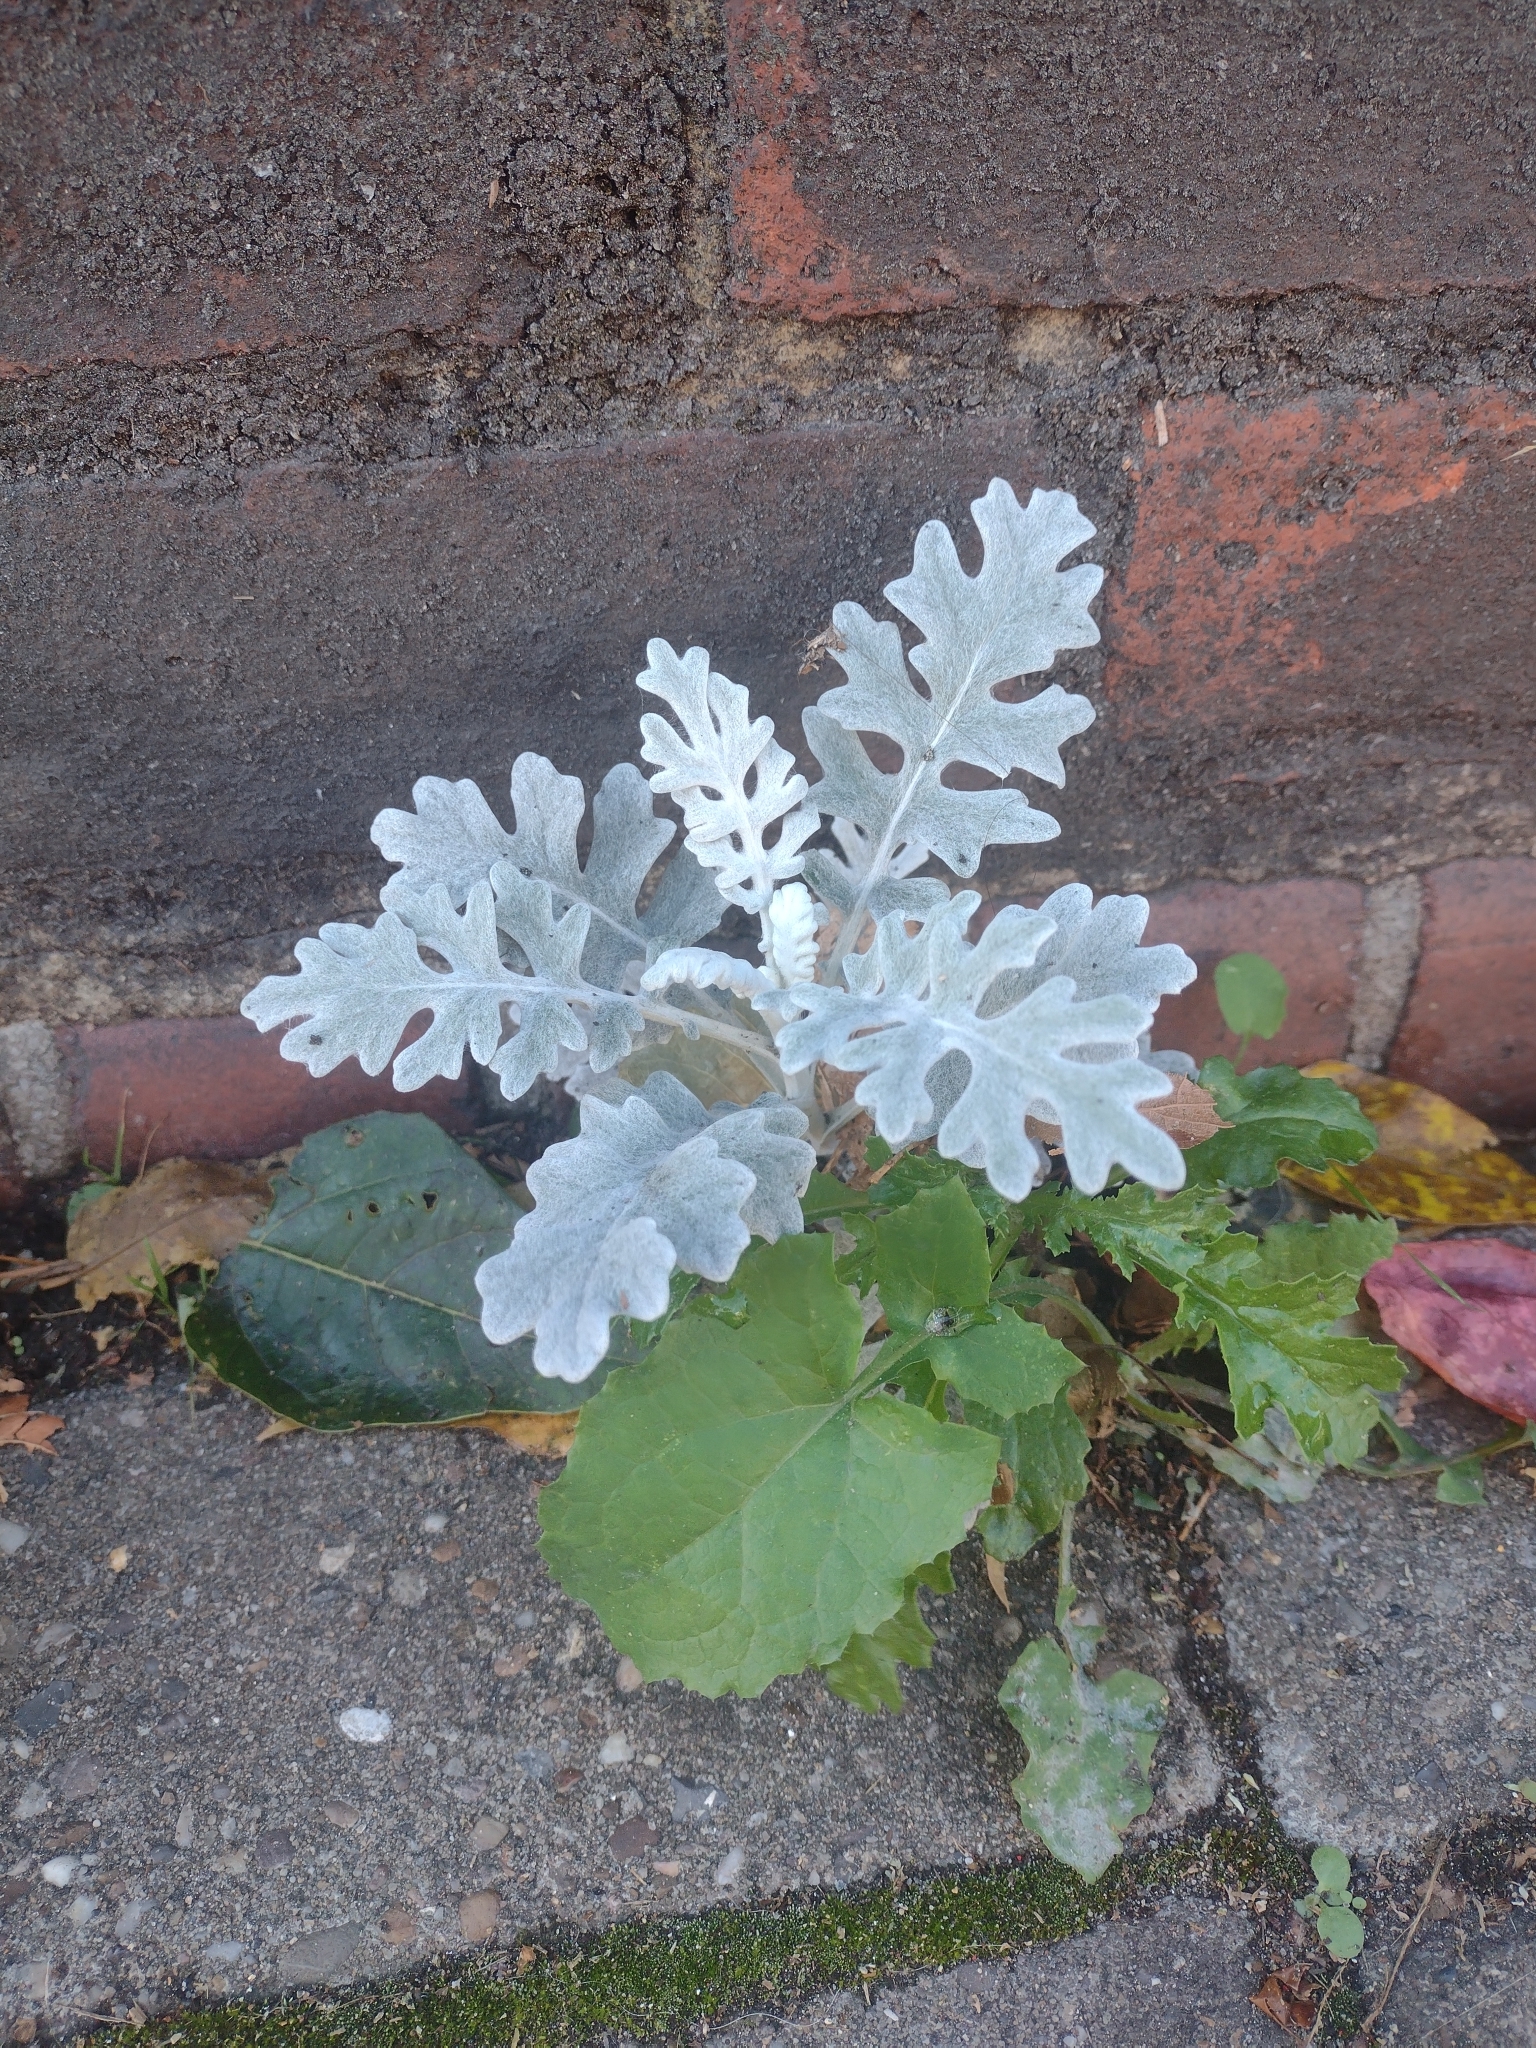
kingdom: Plantae
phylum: Tracheophyta
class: Magnoliopsida
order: Asterales
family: Asteraceae
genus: Jacobaea
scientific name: Jacobaea maritima
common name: Silver ragwort
